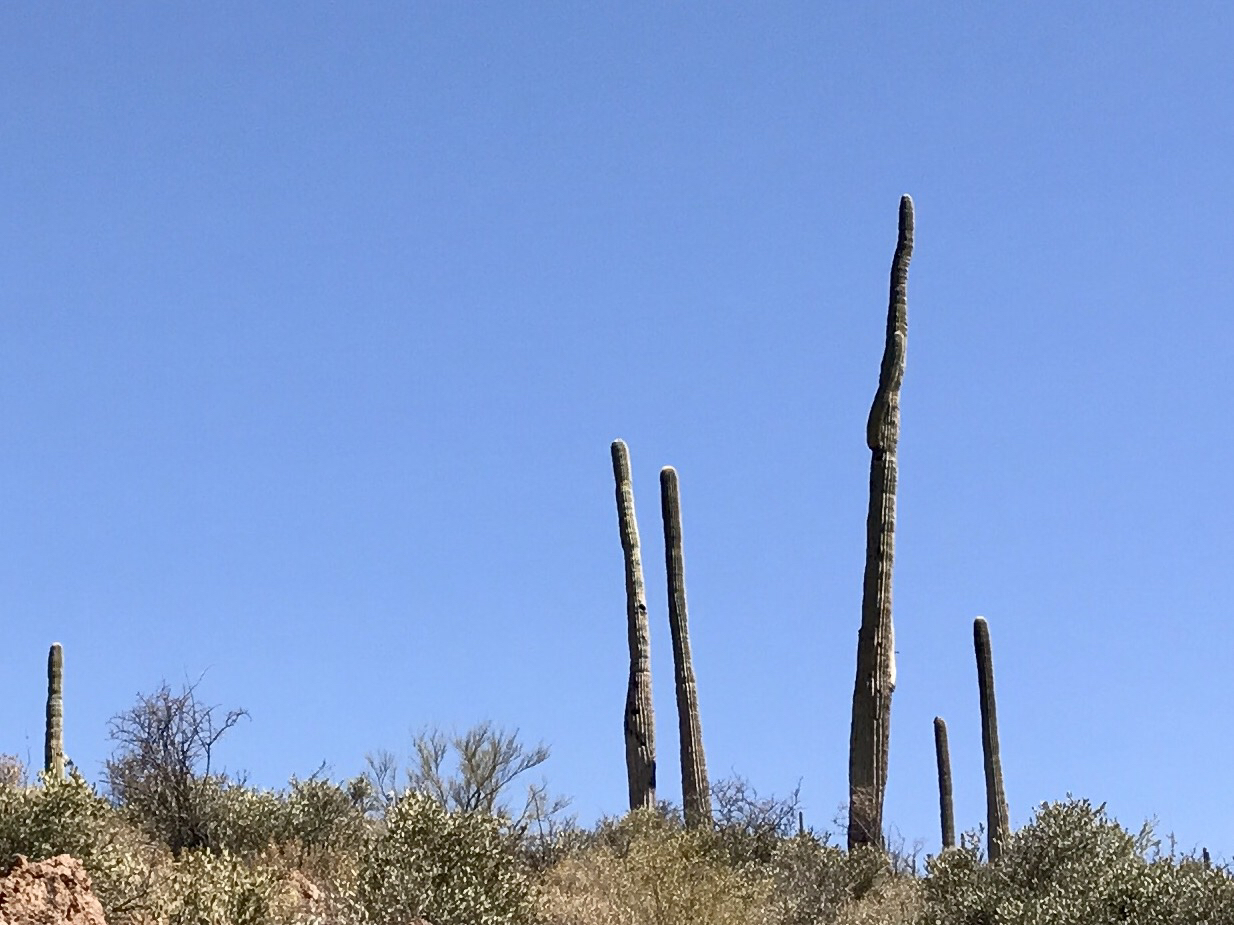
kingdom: Plantae
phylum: Tracheophyta
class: Magnoliopsida
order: Caryophyllales
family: Cactaceae
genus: Carnegiea
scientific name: Carnegiea gigantea
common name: Saguaro
